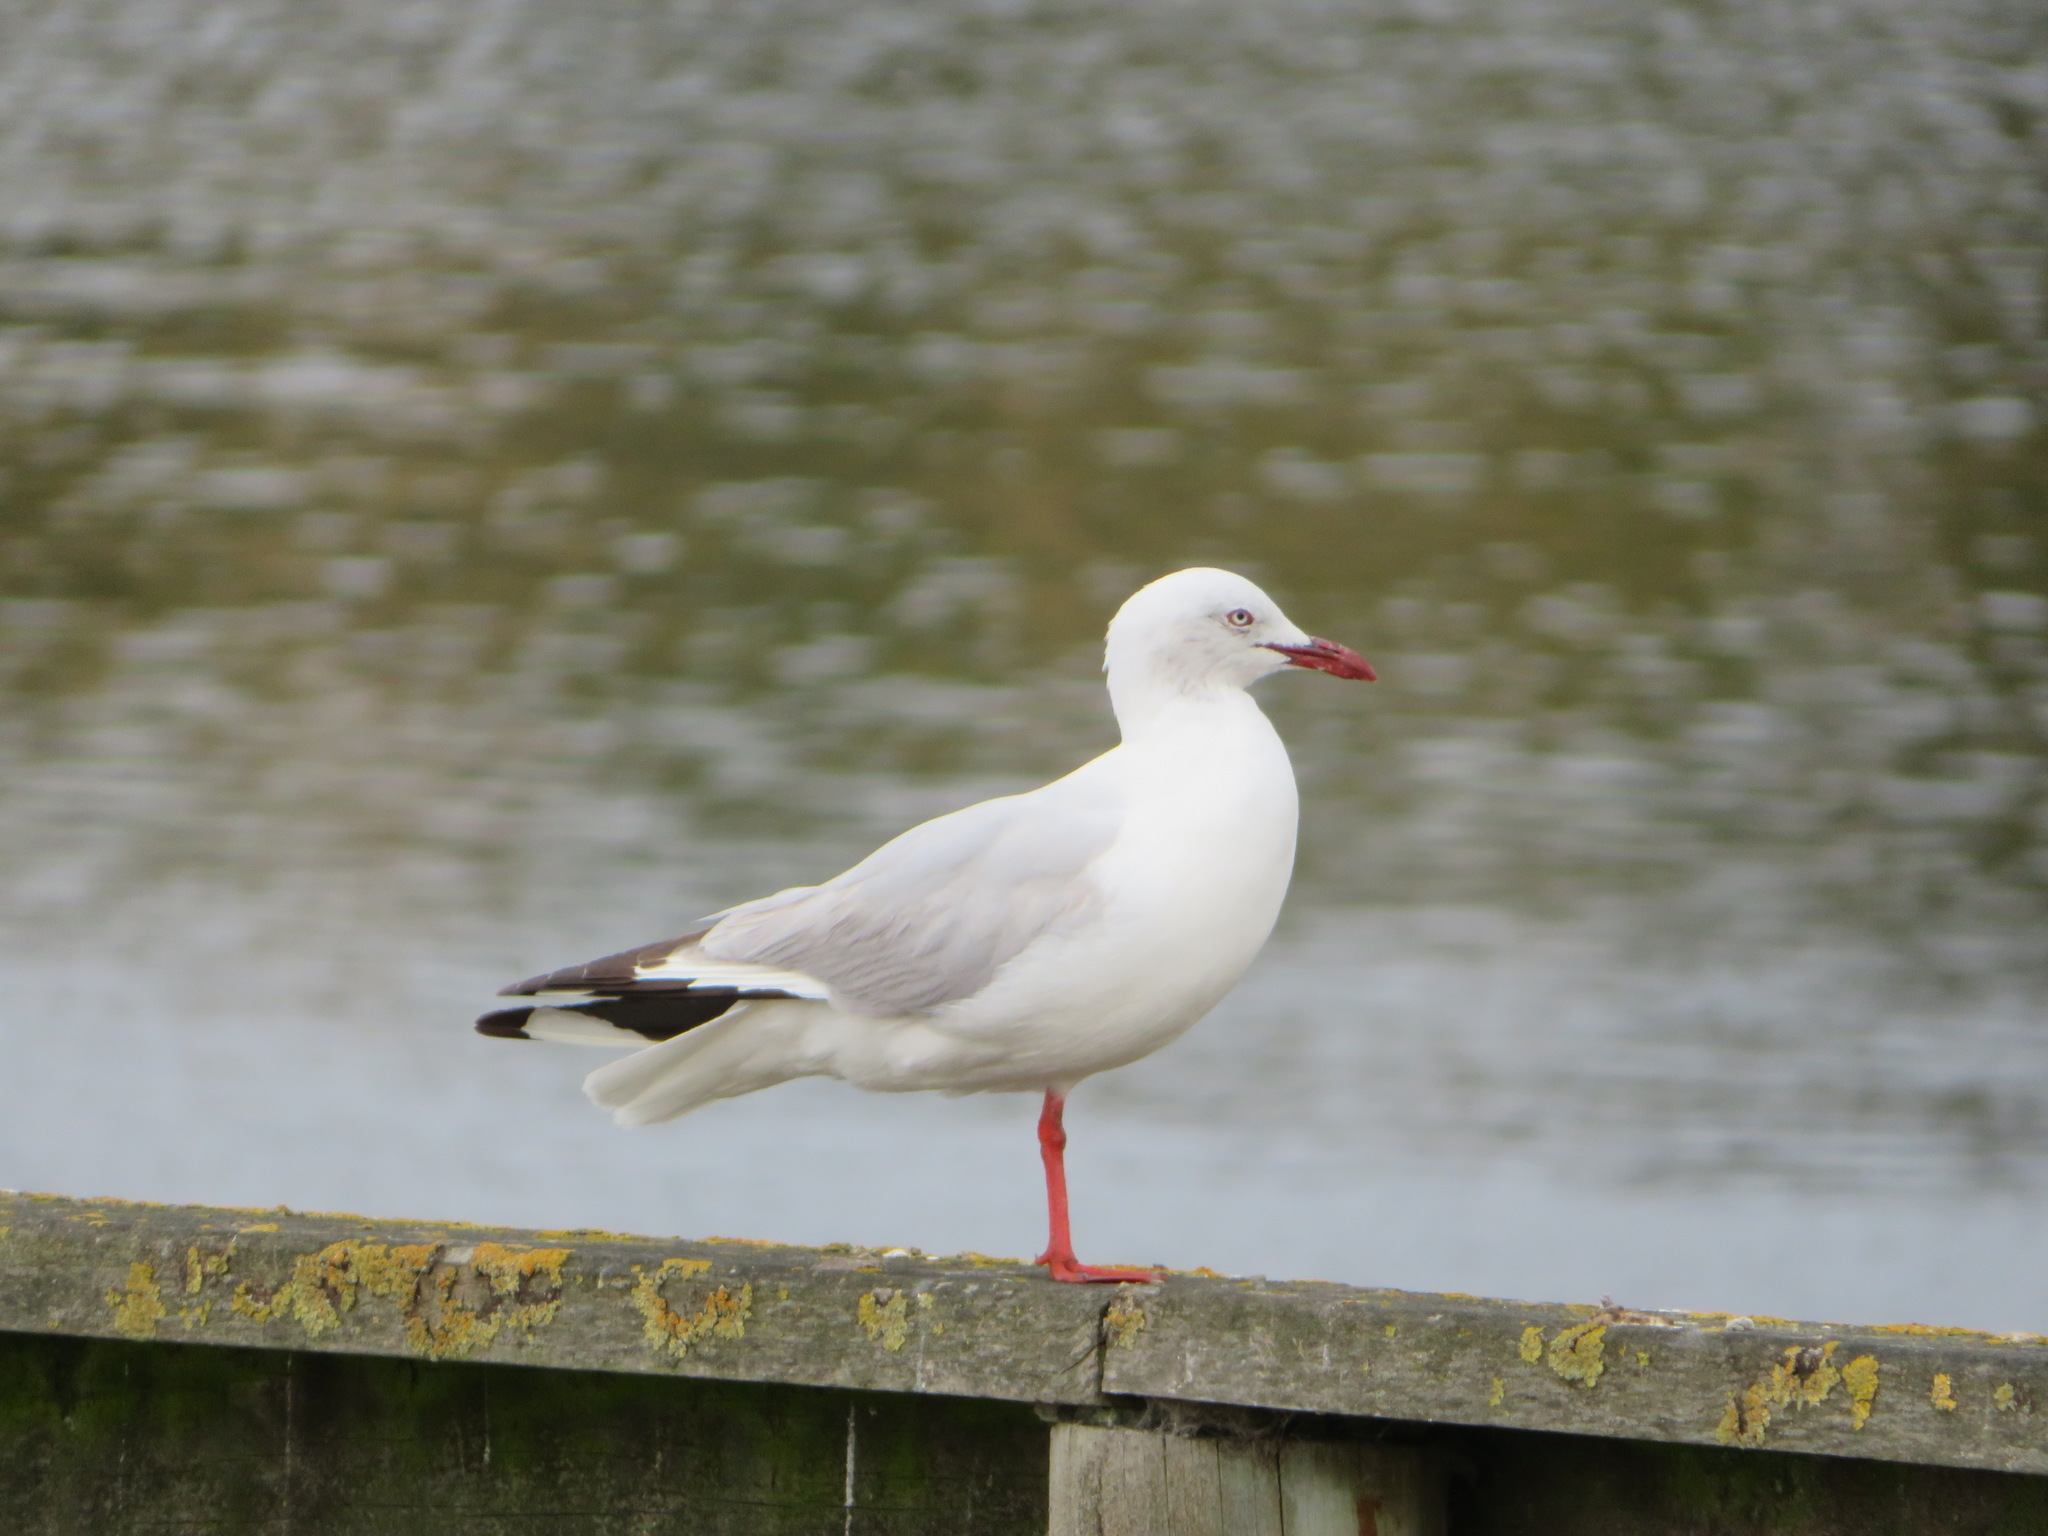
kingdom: Animalia
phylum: Chordata
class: Aves
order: Charadriiformes
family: Laridae
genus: Chroicocephalus
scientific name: Chroicocephalus novaehollandiae
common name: Silver gull
